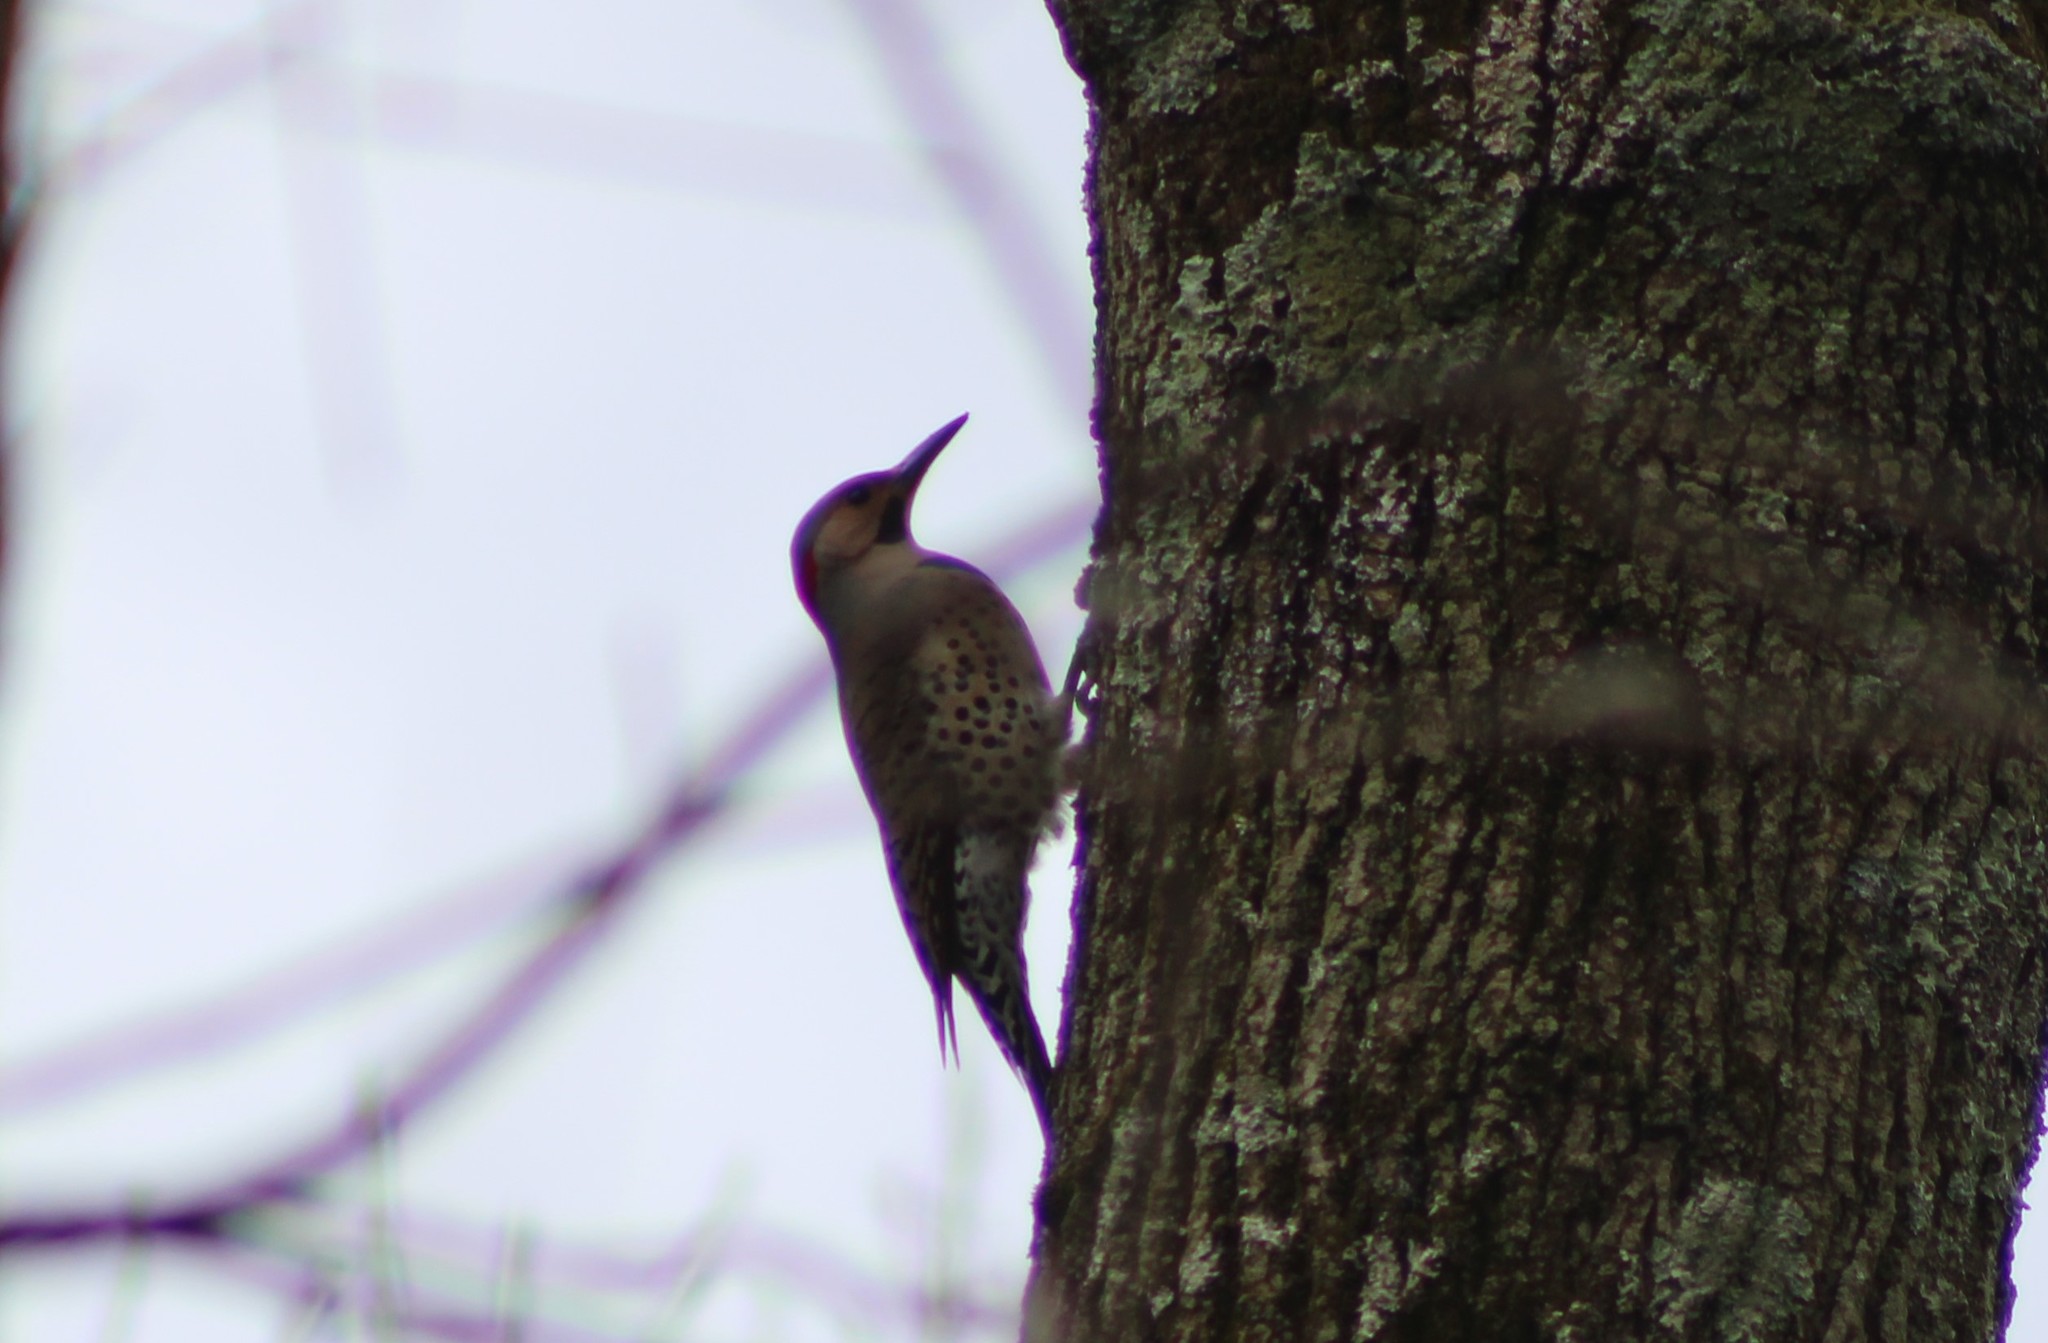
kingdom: Animalia
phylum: Chordata
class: Aves
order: Piciformes
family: Picidae
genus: Colaptes
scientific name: Colaptes auratus
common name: Northern flicker
